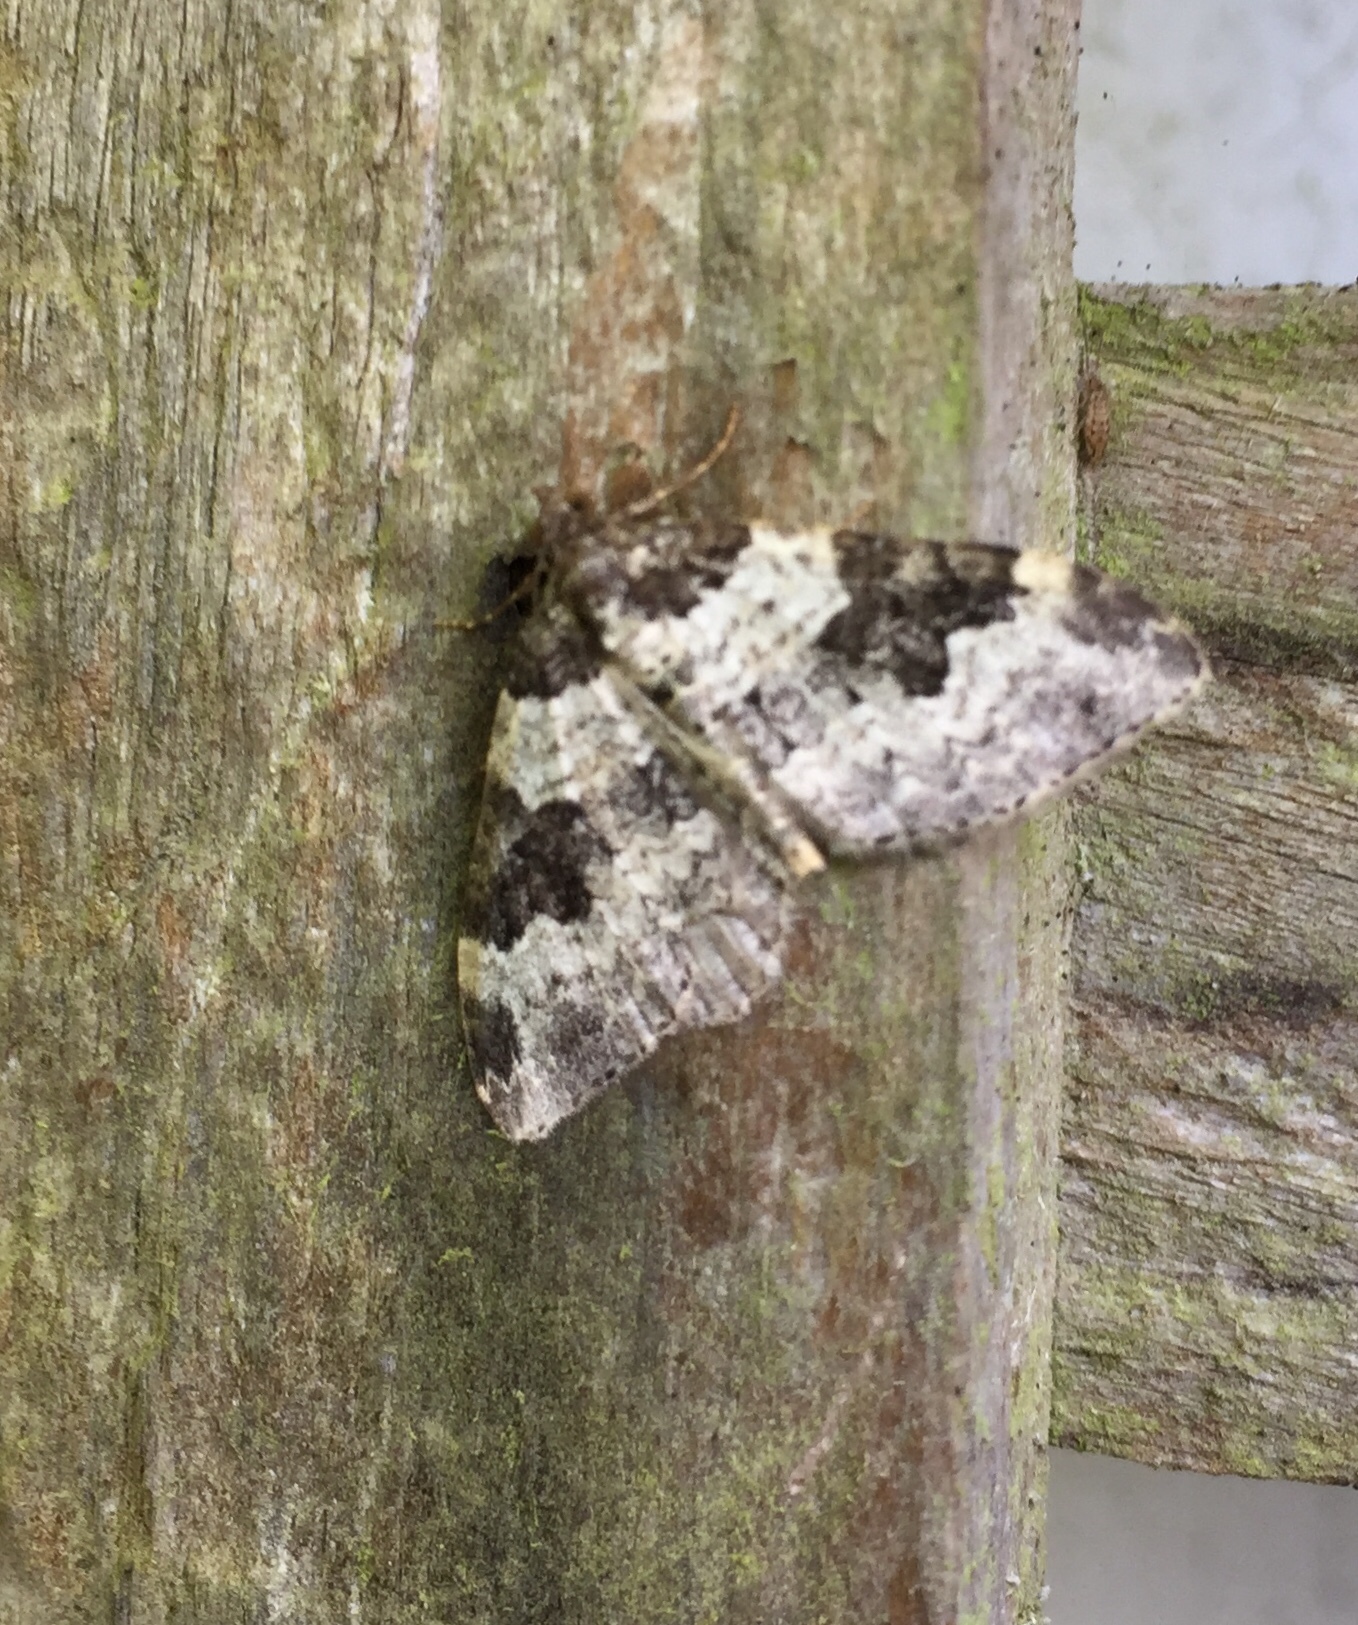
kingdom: Animalia
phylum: Arthropoda
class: Insecta
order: Lepidoptera
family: Geometridae
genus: Xanthorhoe
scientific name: Xanthorhoe fluctuata
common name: Garden carpet
